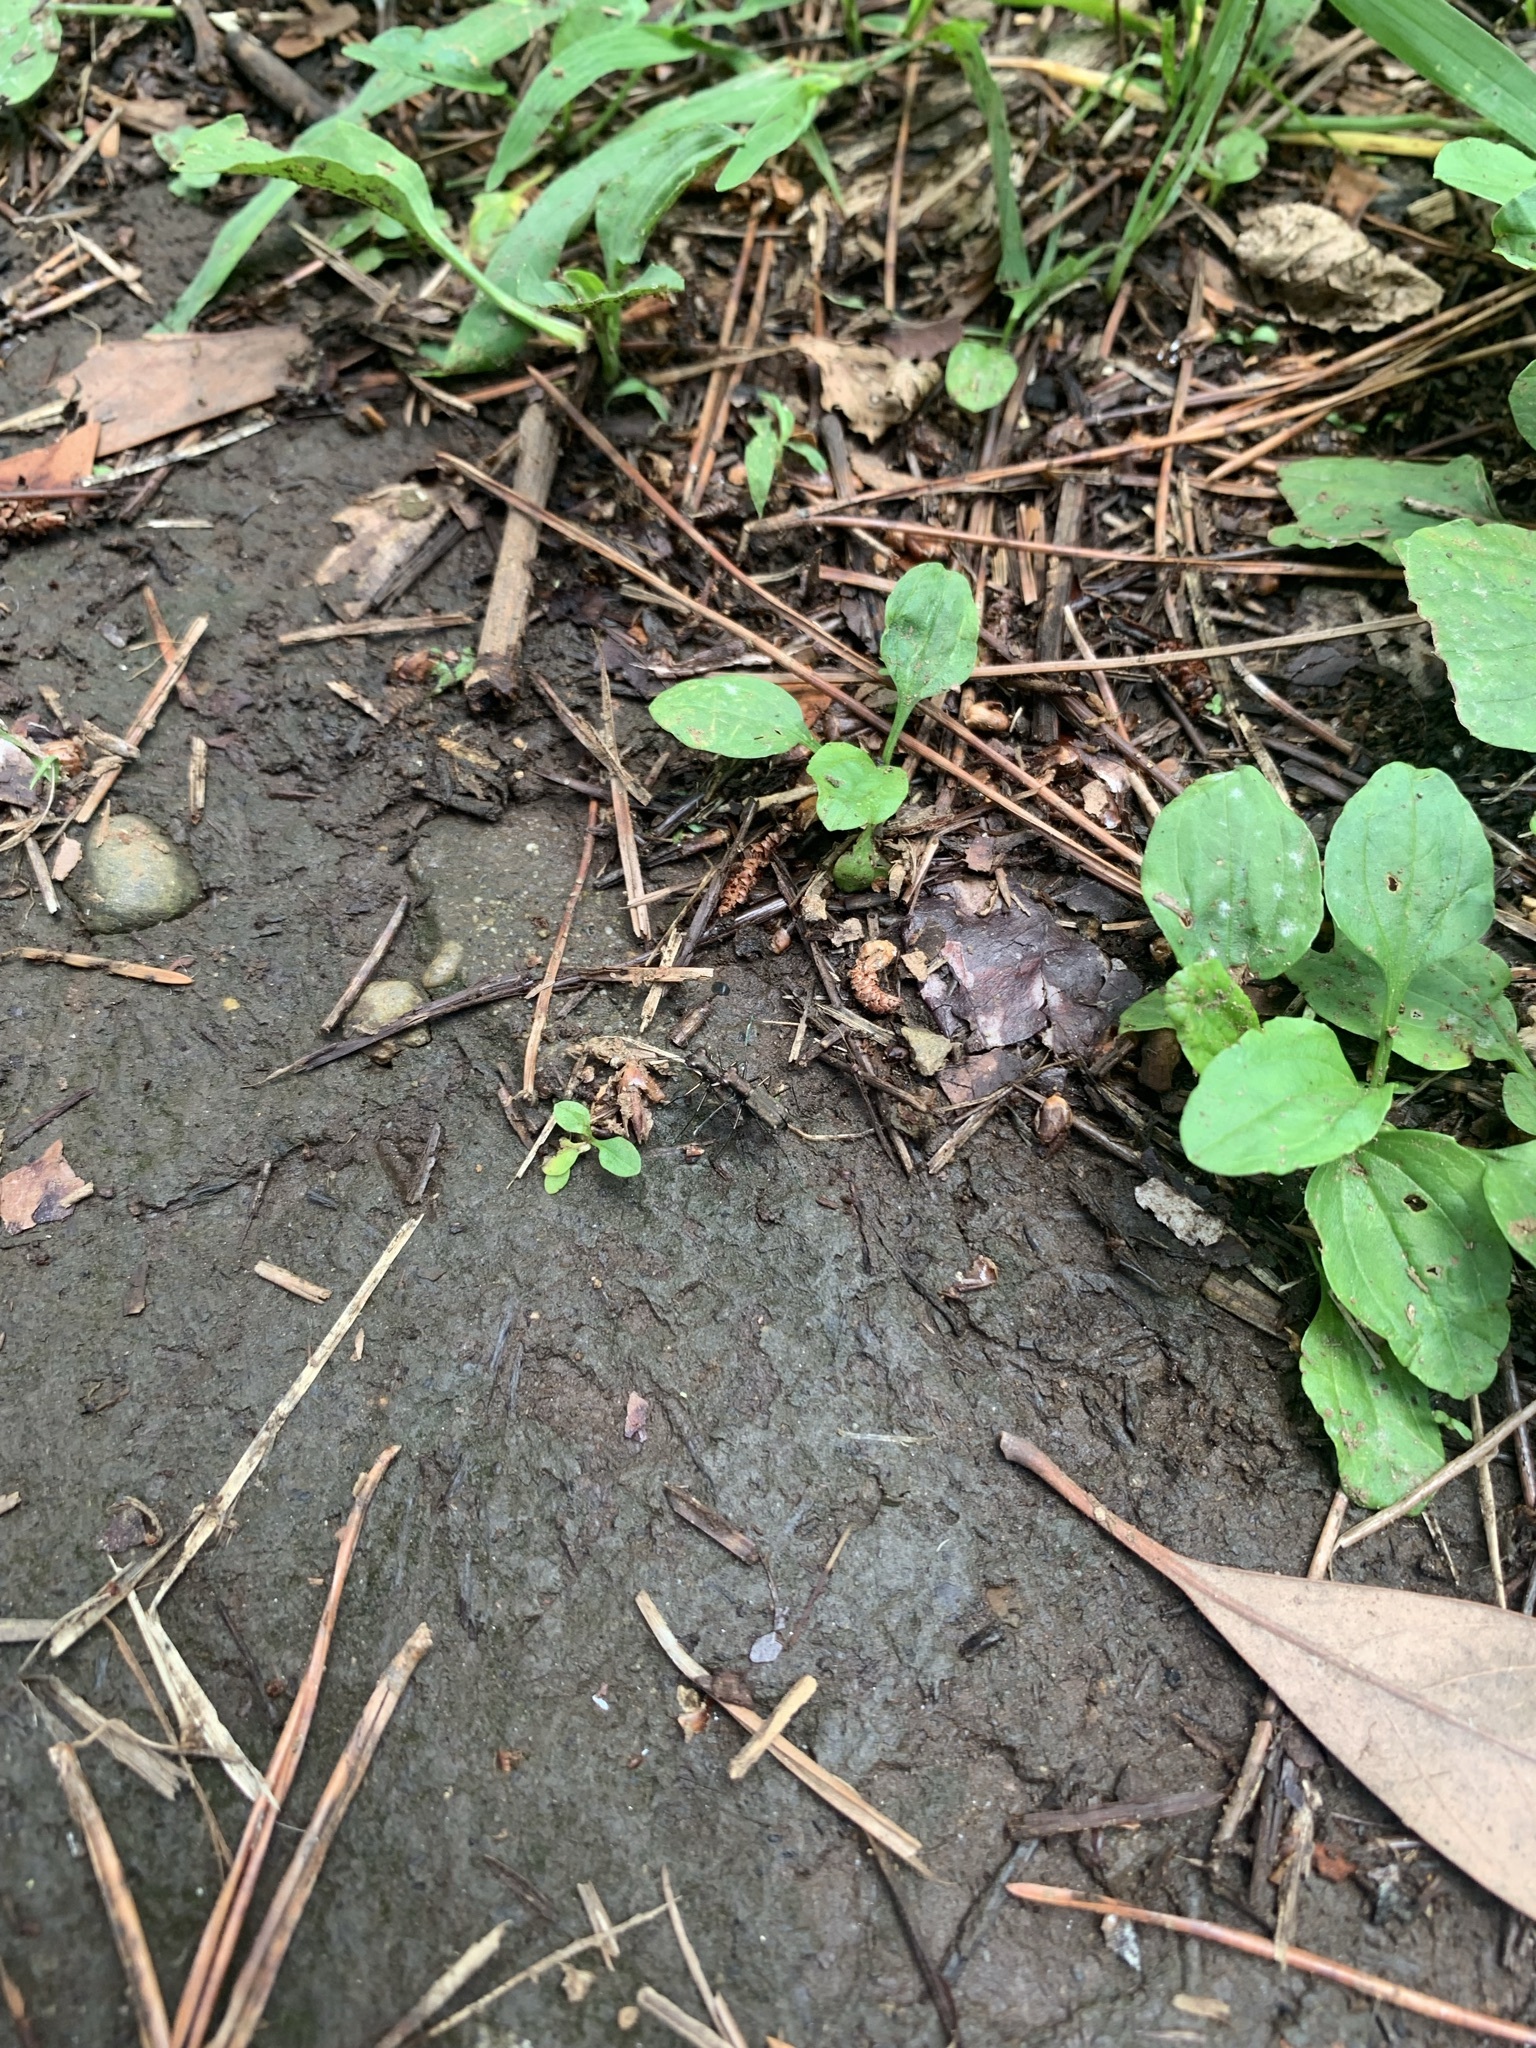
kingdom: Animalia
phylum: Arthropoda
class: Insecta
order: Coleoptera
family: Carabidae
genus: Cylindera
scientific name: Cylindera kaleea
